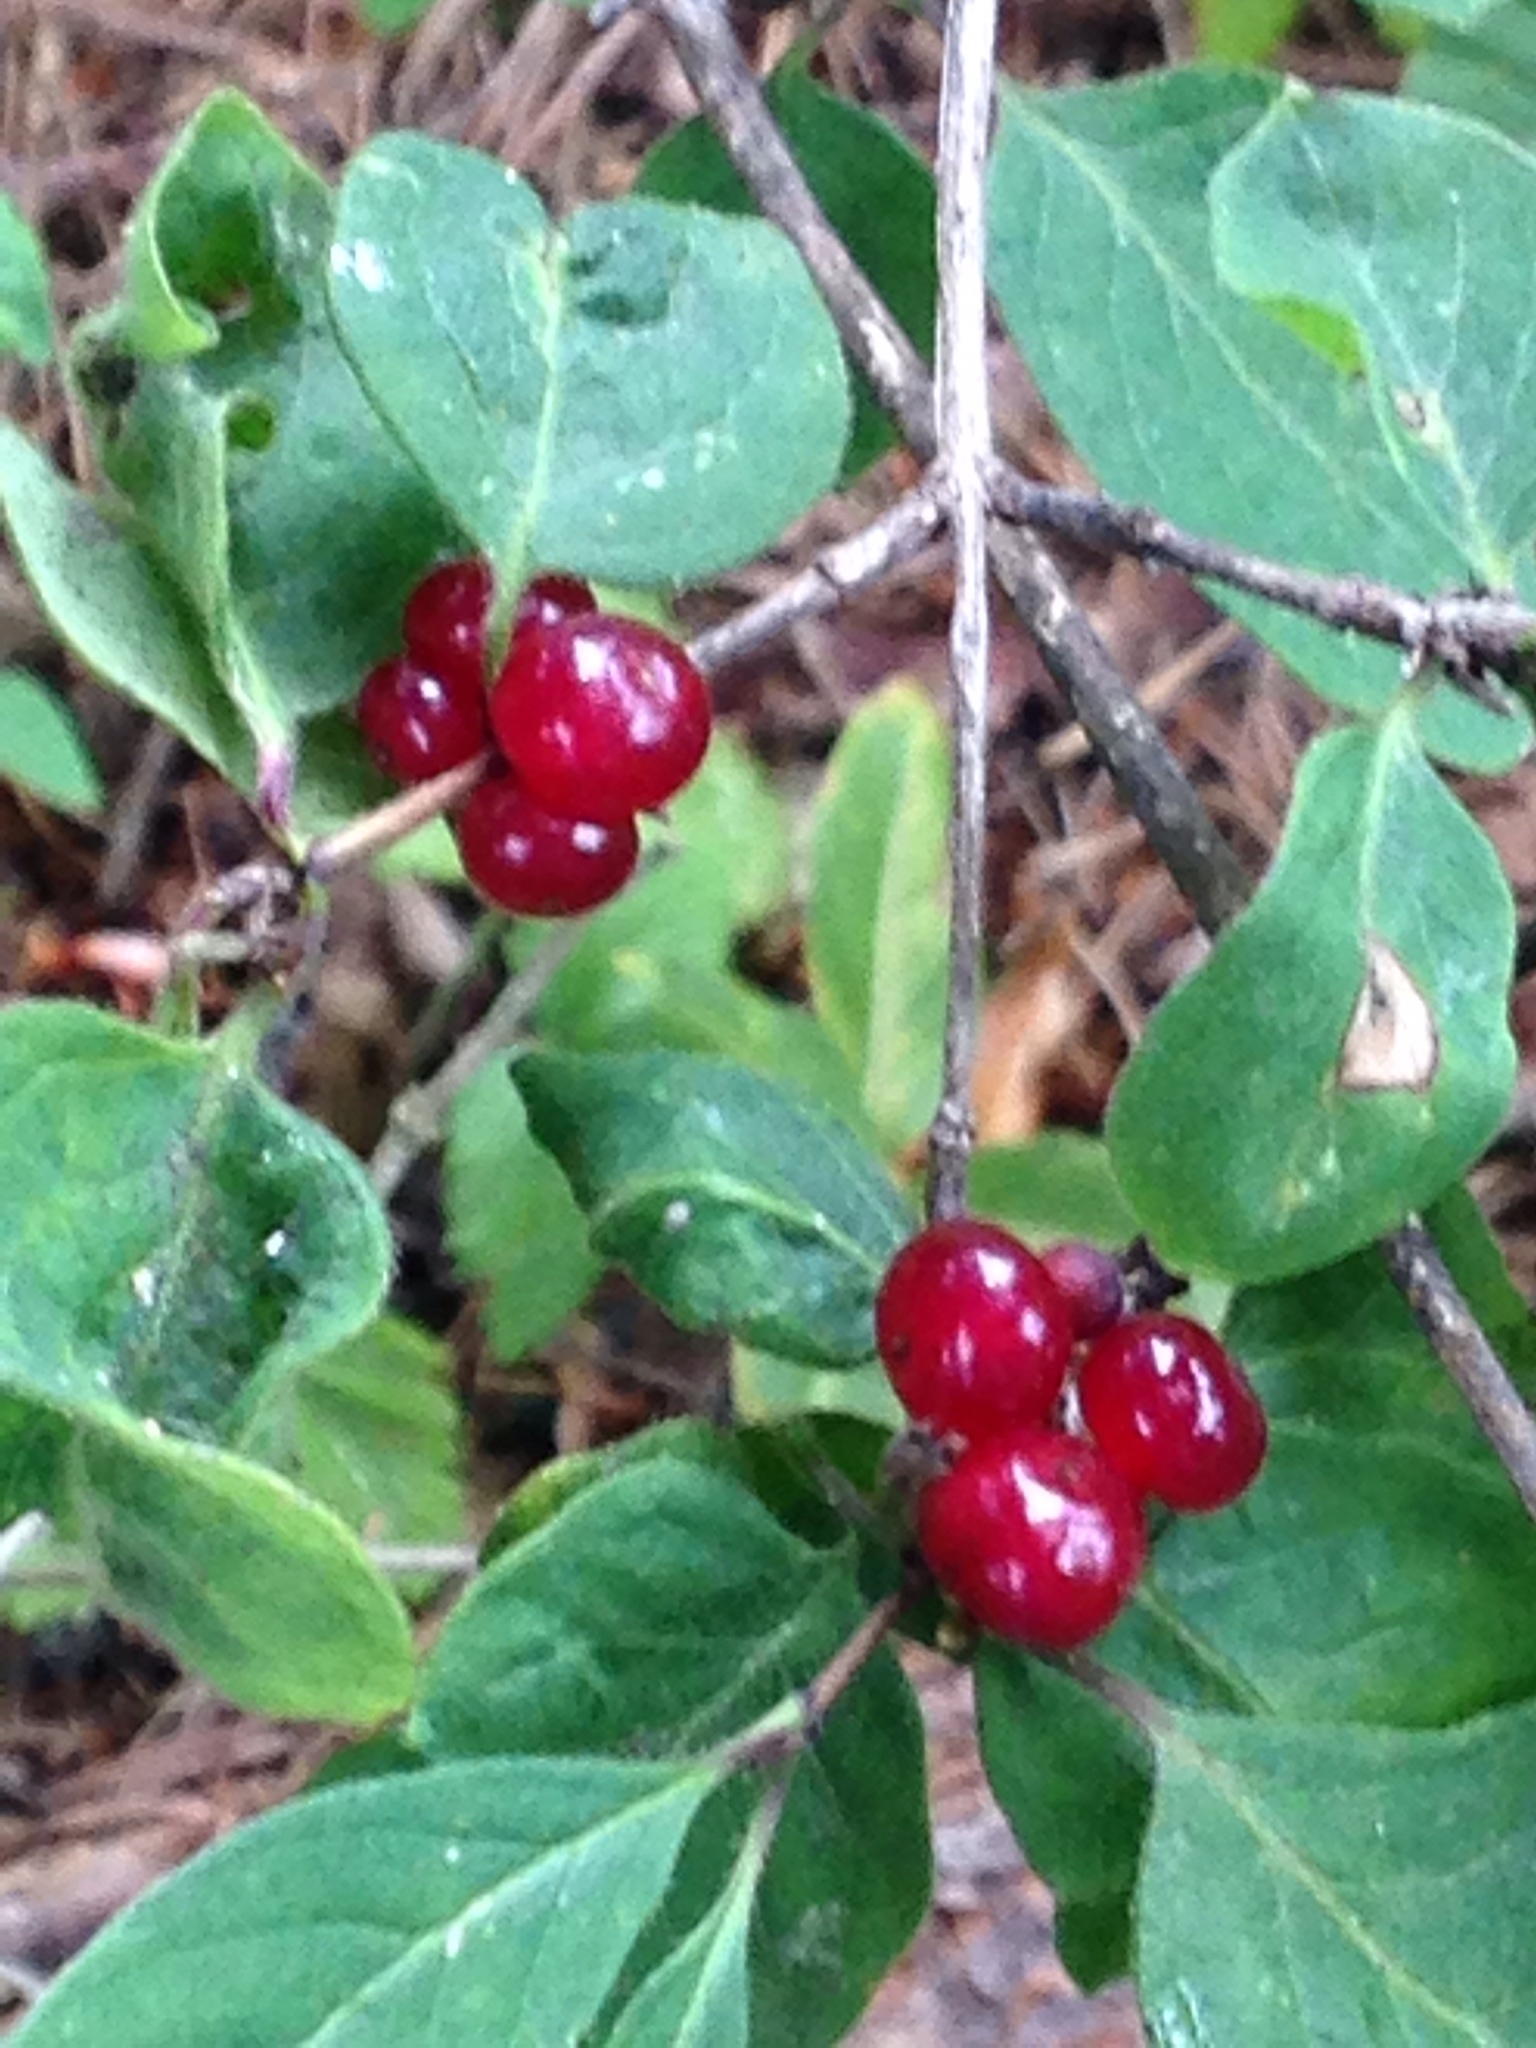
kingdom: Plantae
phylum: Tracheophyta
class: Magnoliopsida
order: Dipsacales
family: Caprifoliaceae
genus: Lonicera
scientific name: Lonicera xylosteum
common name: Fly honeysuckle
